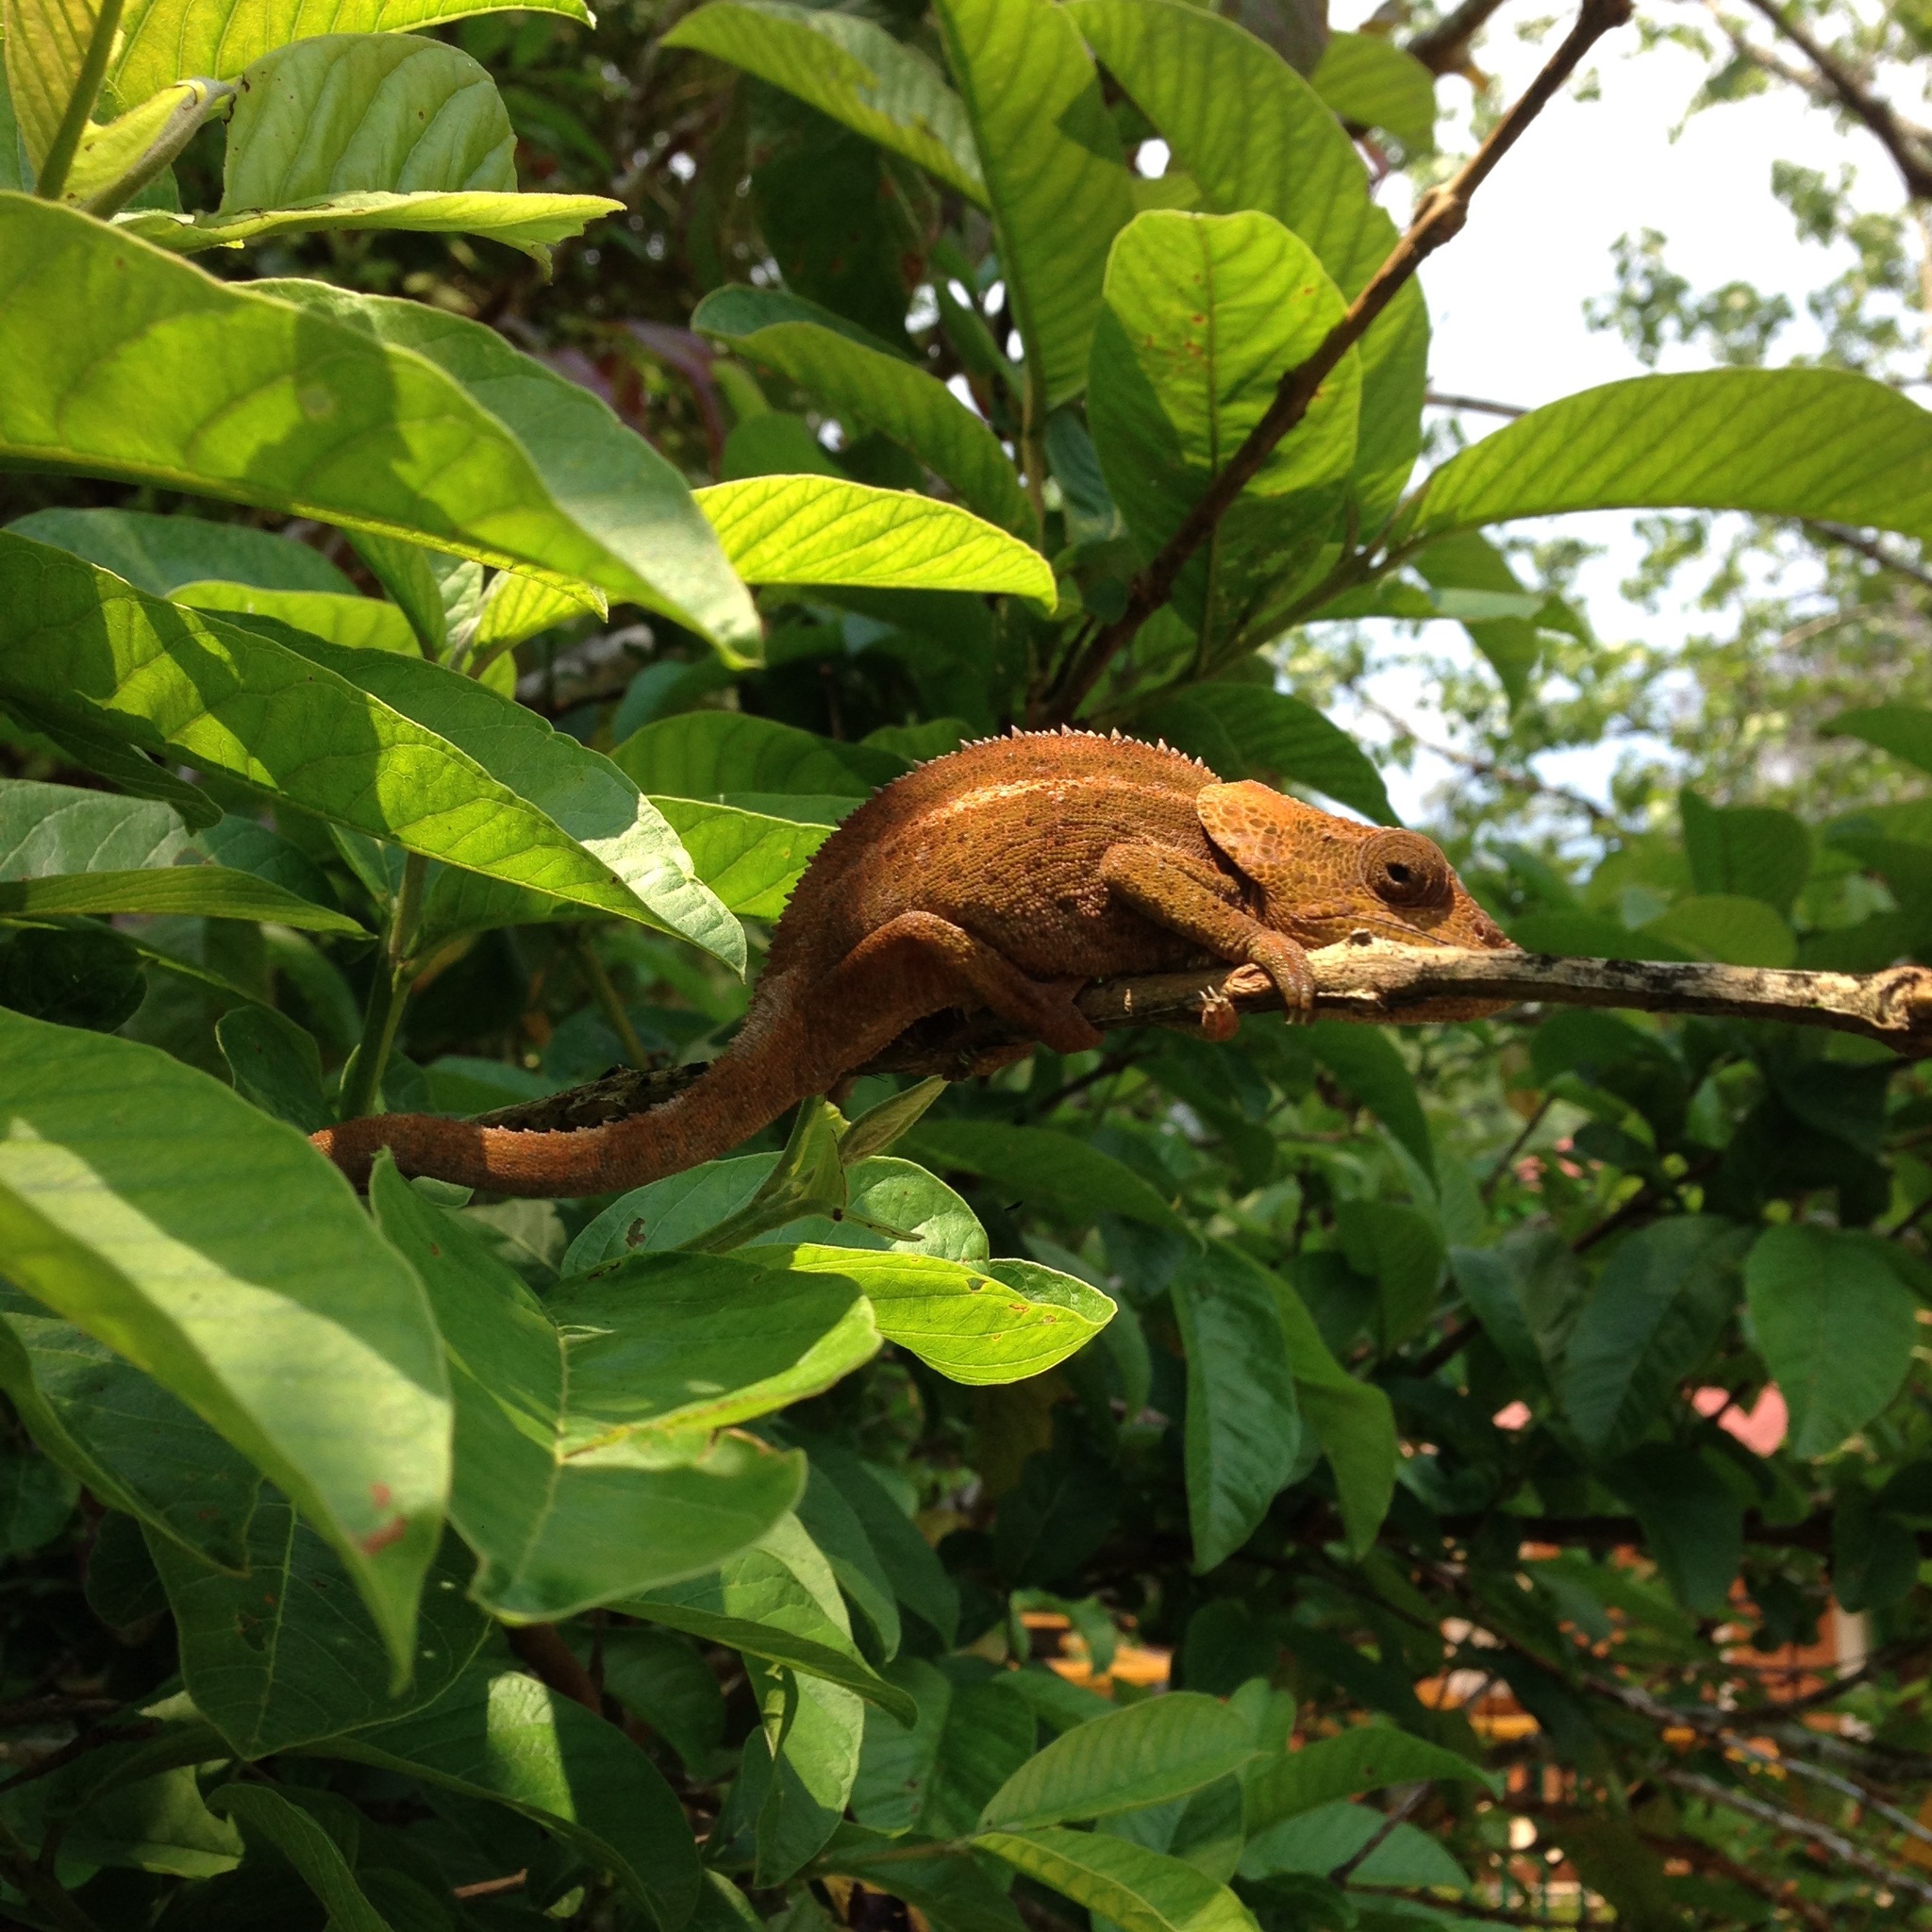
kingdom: Animalia
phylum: Chordata
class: Squamata
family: Chamaeleonidae
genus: Calumma
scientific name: Calumma brevicorne
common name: Short-horned chameleon
